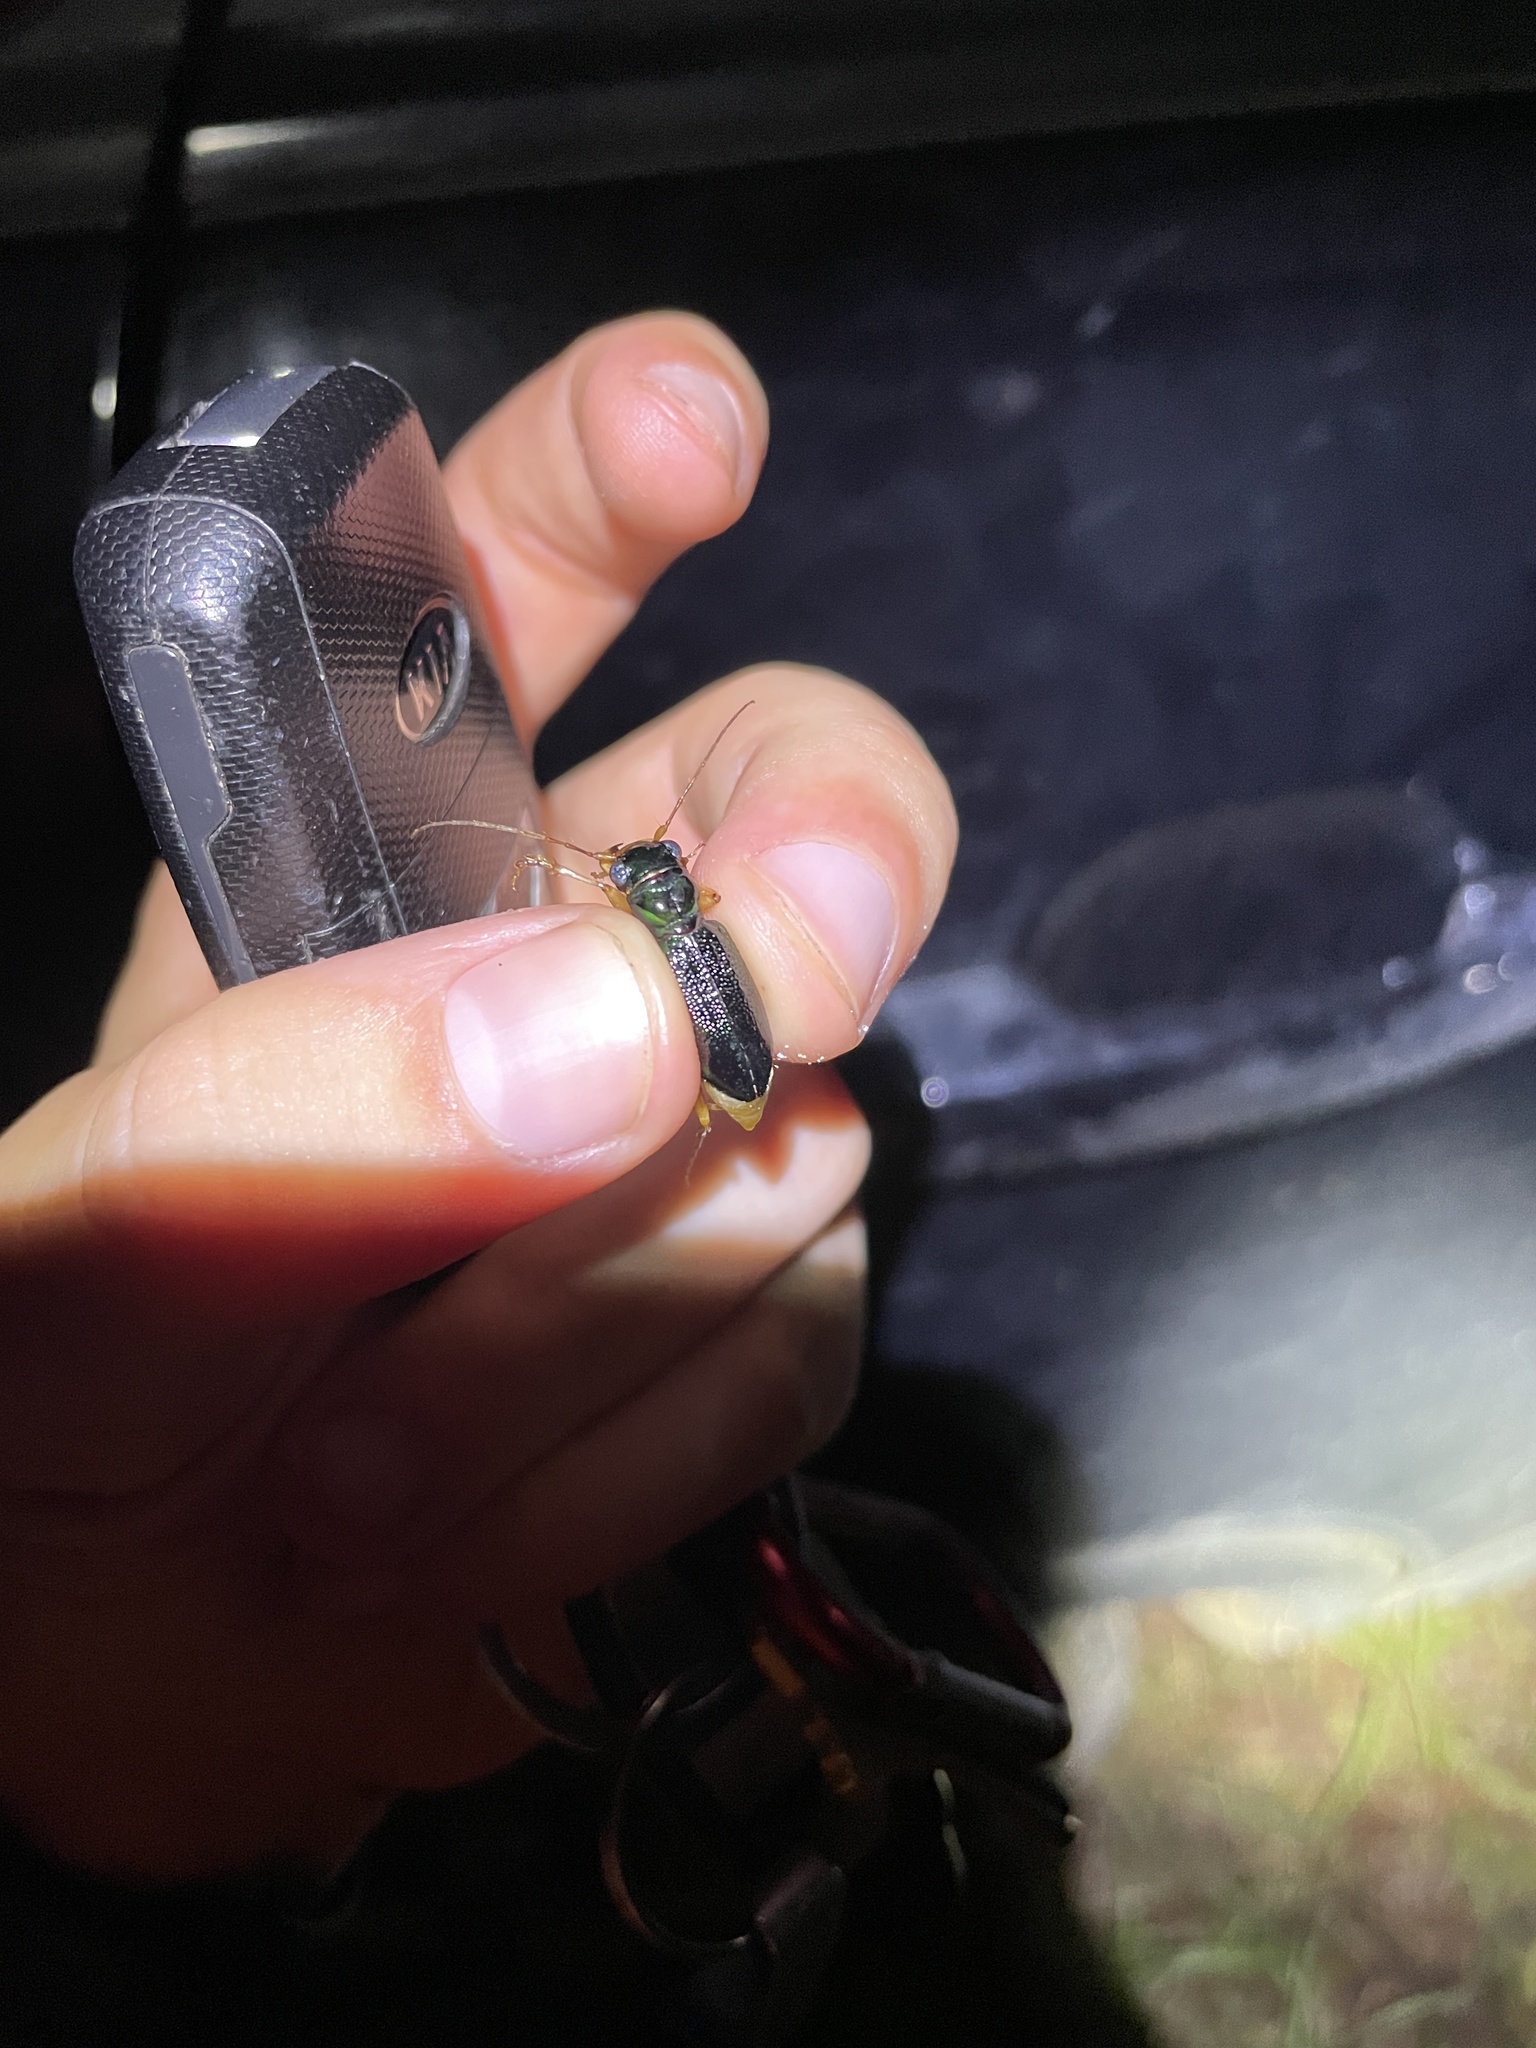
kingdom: Animalia
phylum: Arthropoda
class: Insecta
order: Coleoptera
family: Carabidae
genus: Tetracha
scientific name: Tetracha virginica
